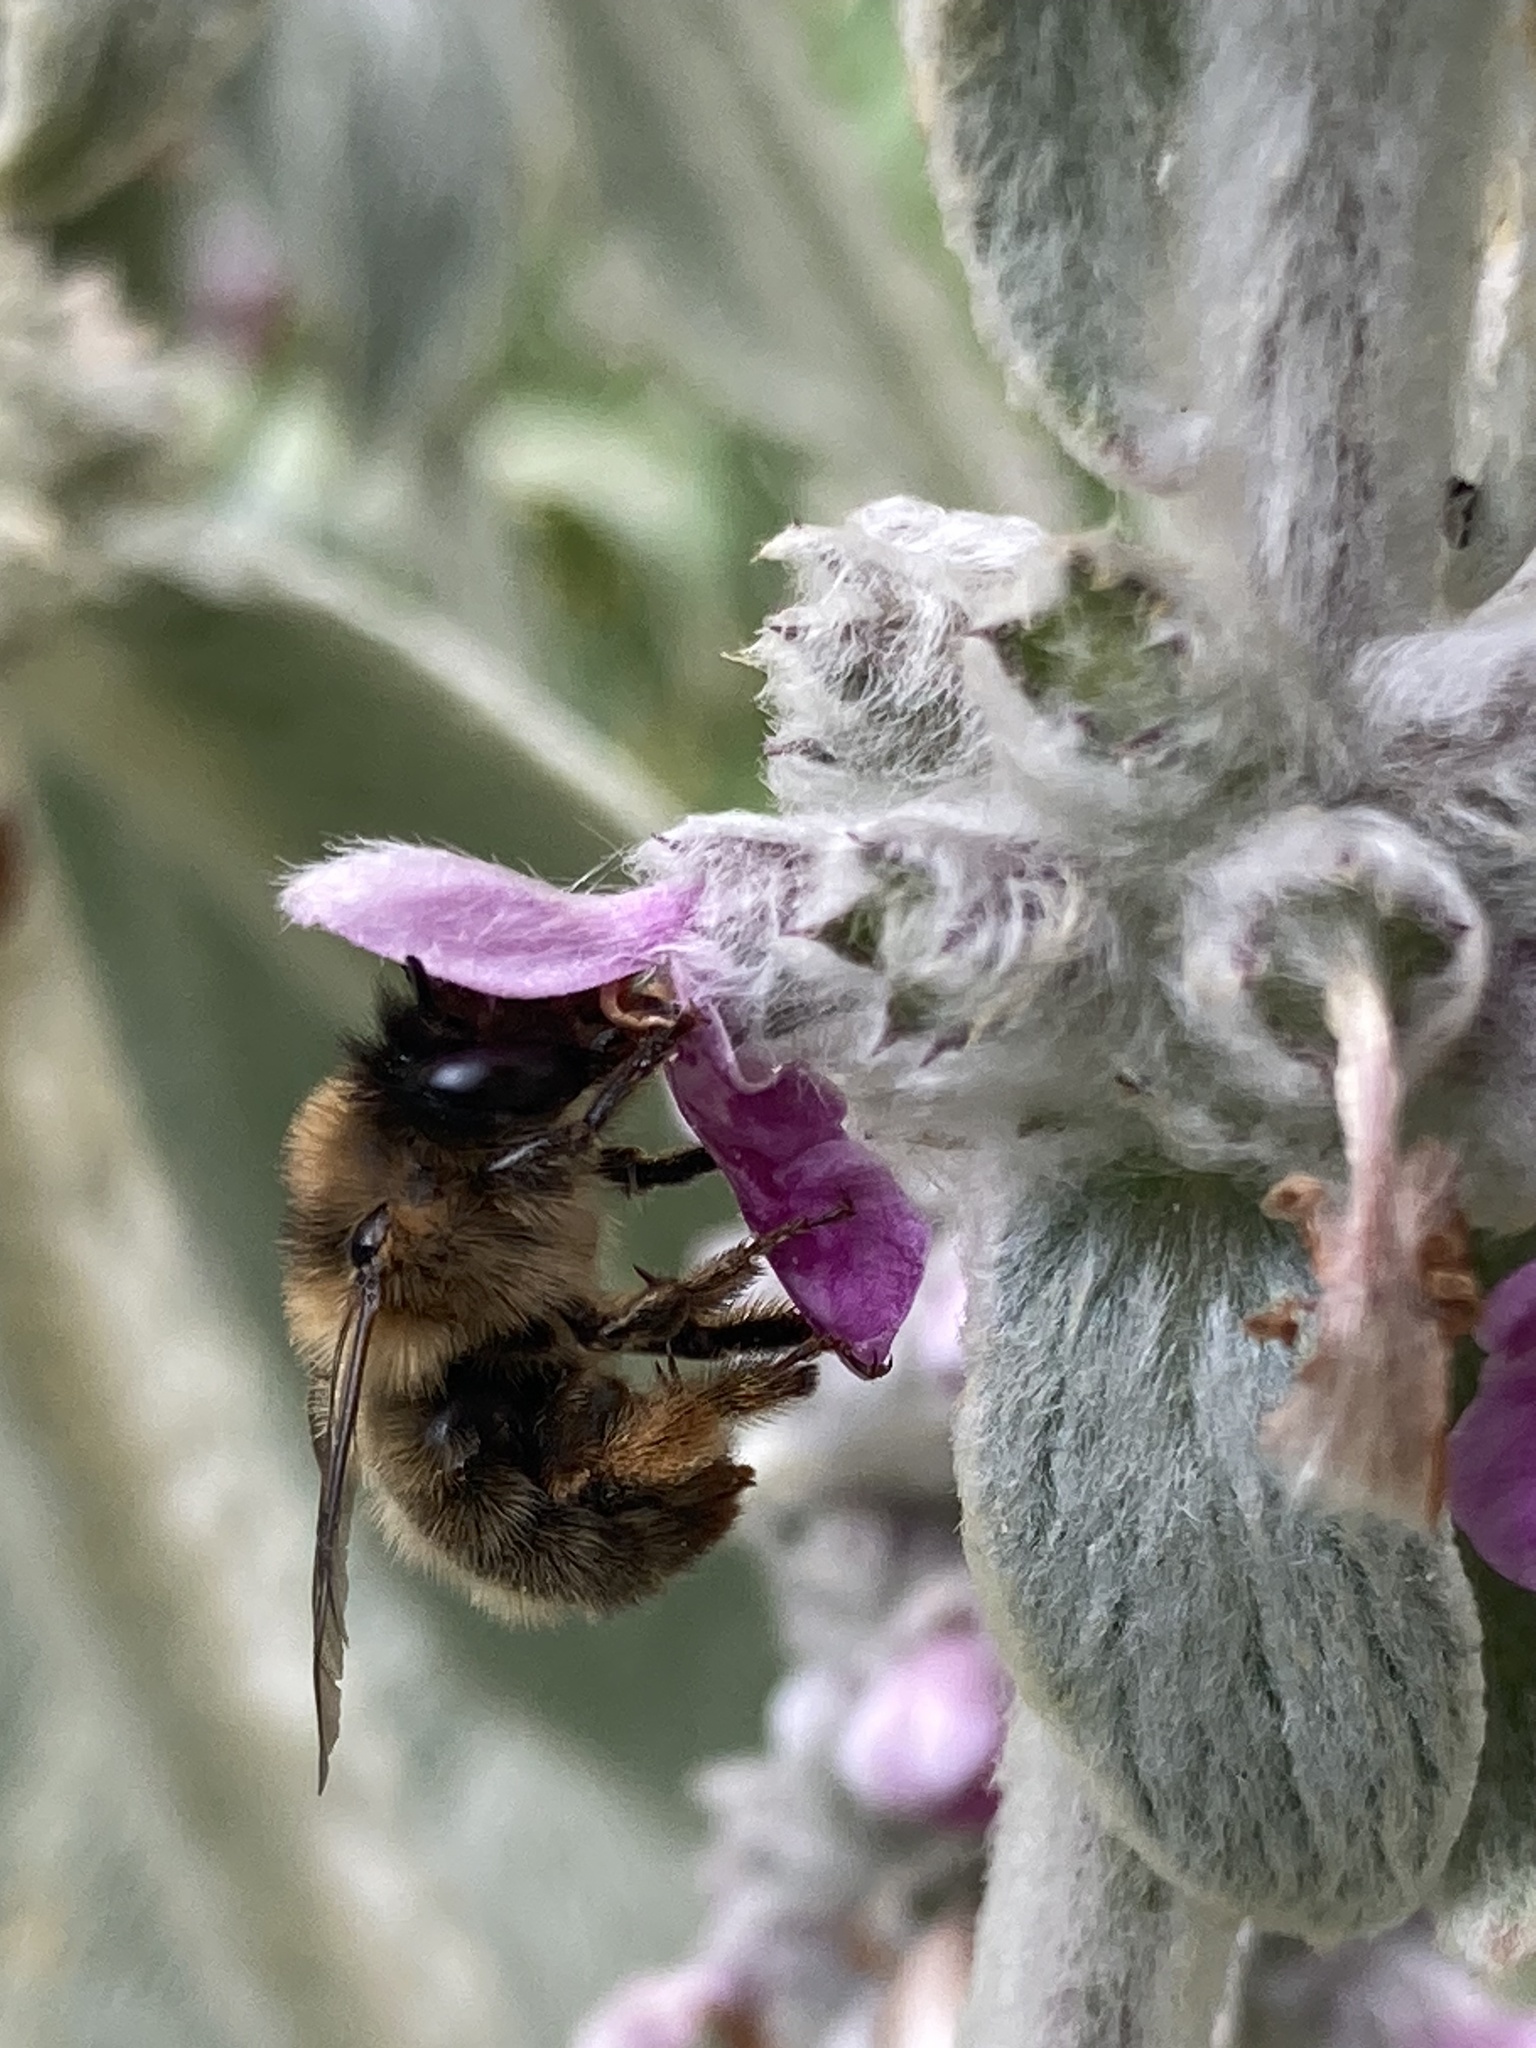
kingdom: Animalia
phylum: Arthropoda
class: Insecta
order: Hymenoptera
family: Apidae
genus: Anthophora
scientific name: Anthophora furcata
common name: Fork-tailed flower bee
